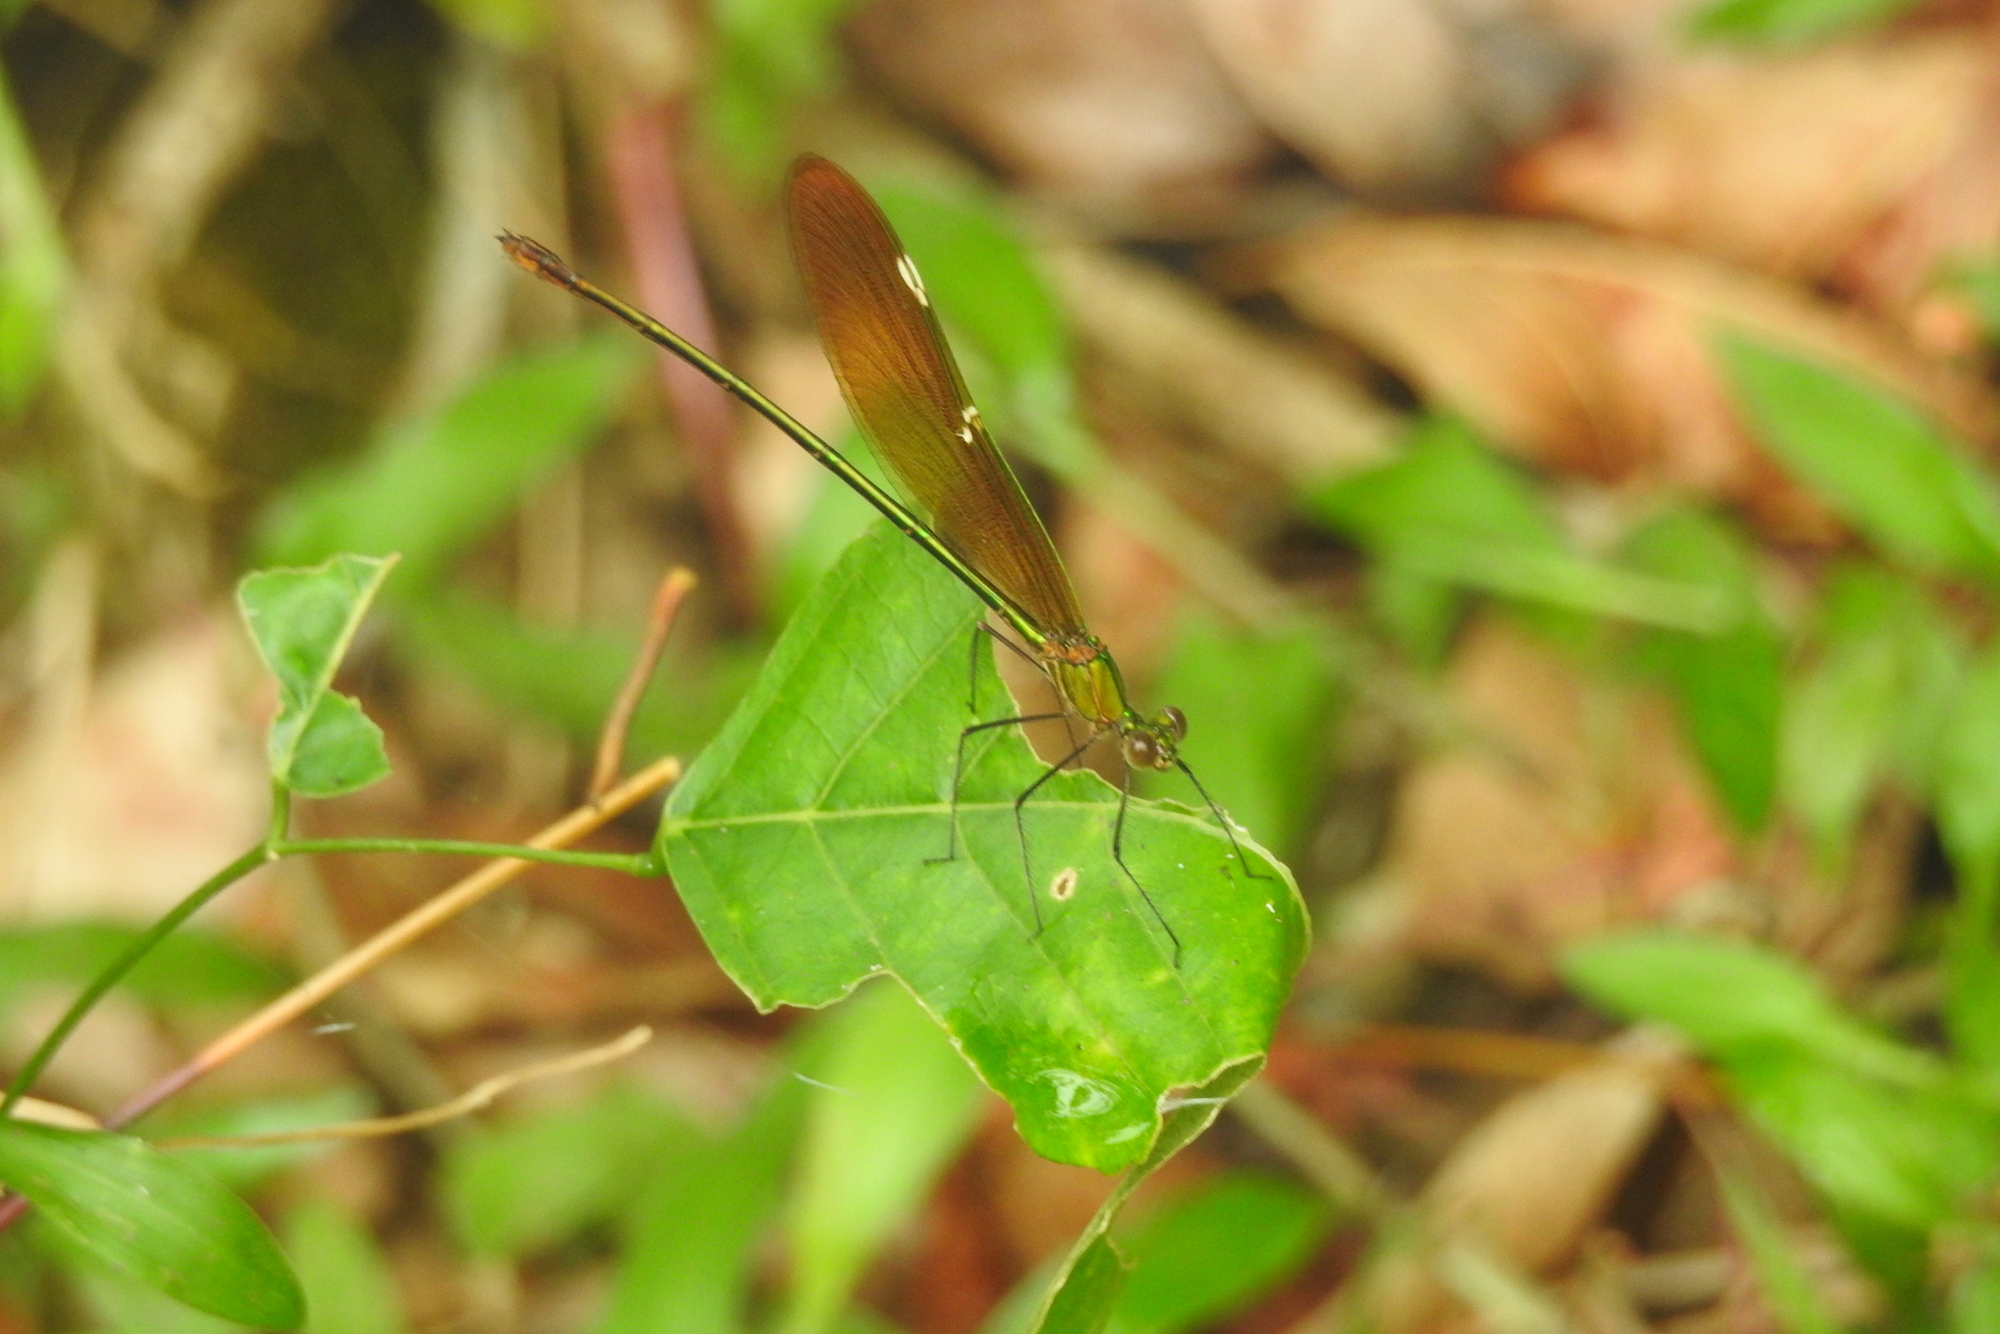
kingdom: Animalia
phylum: Arthropoda
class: Insecta
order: Odonata
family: Calopterygidae
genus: Neurobasis
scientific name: Neurobasis chinensis
